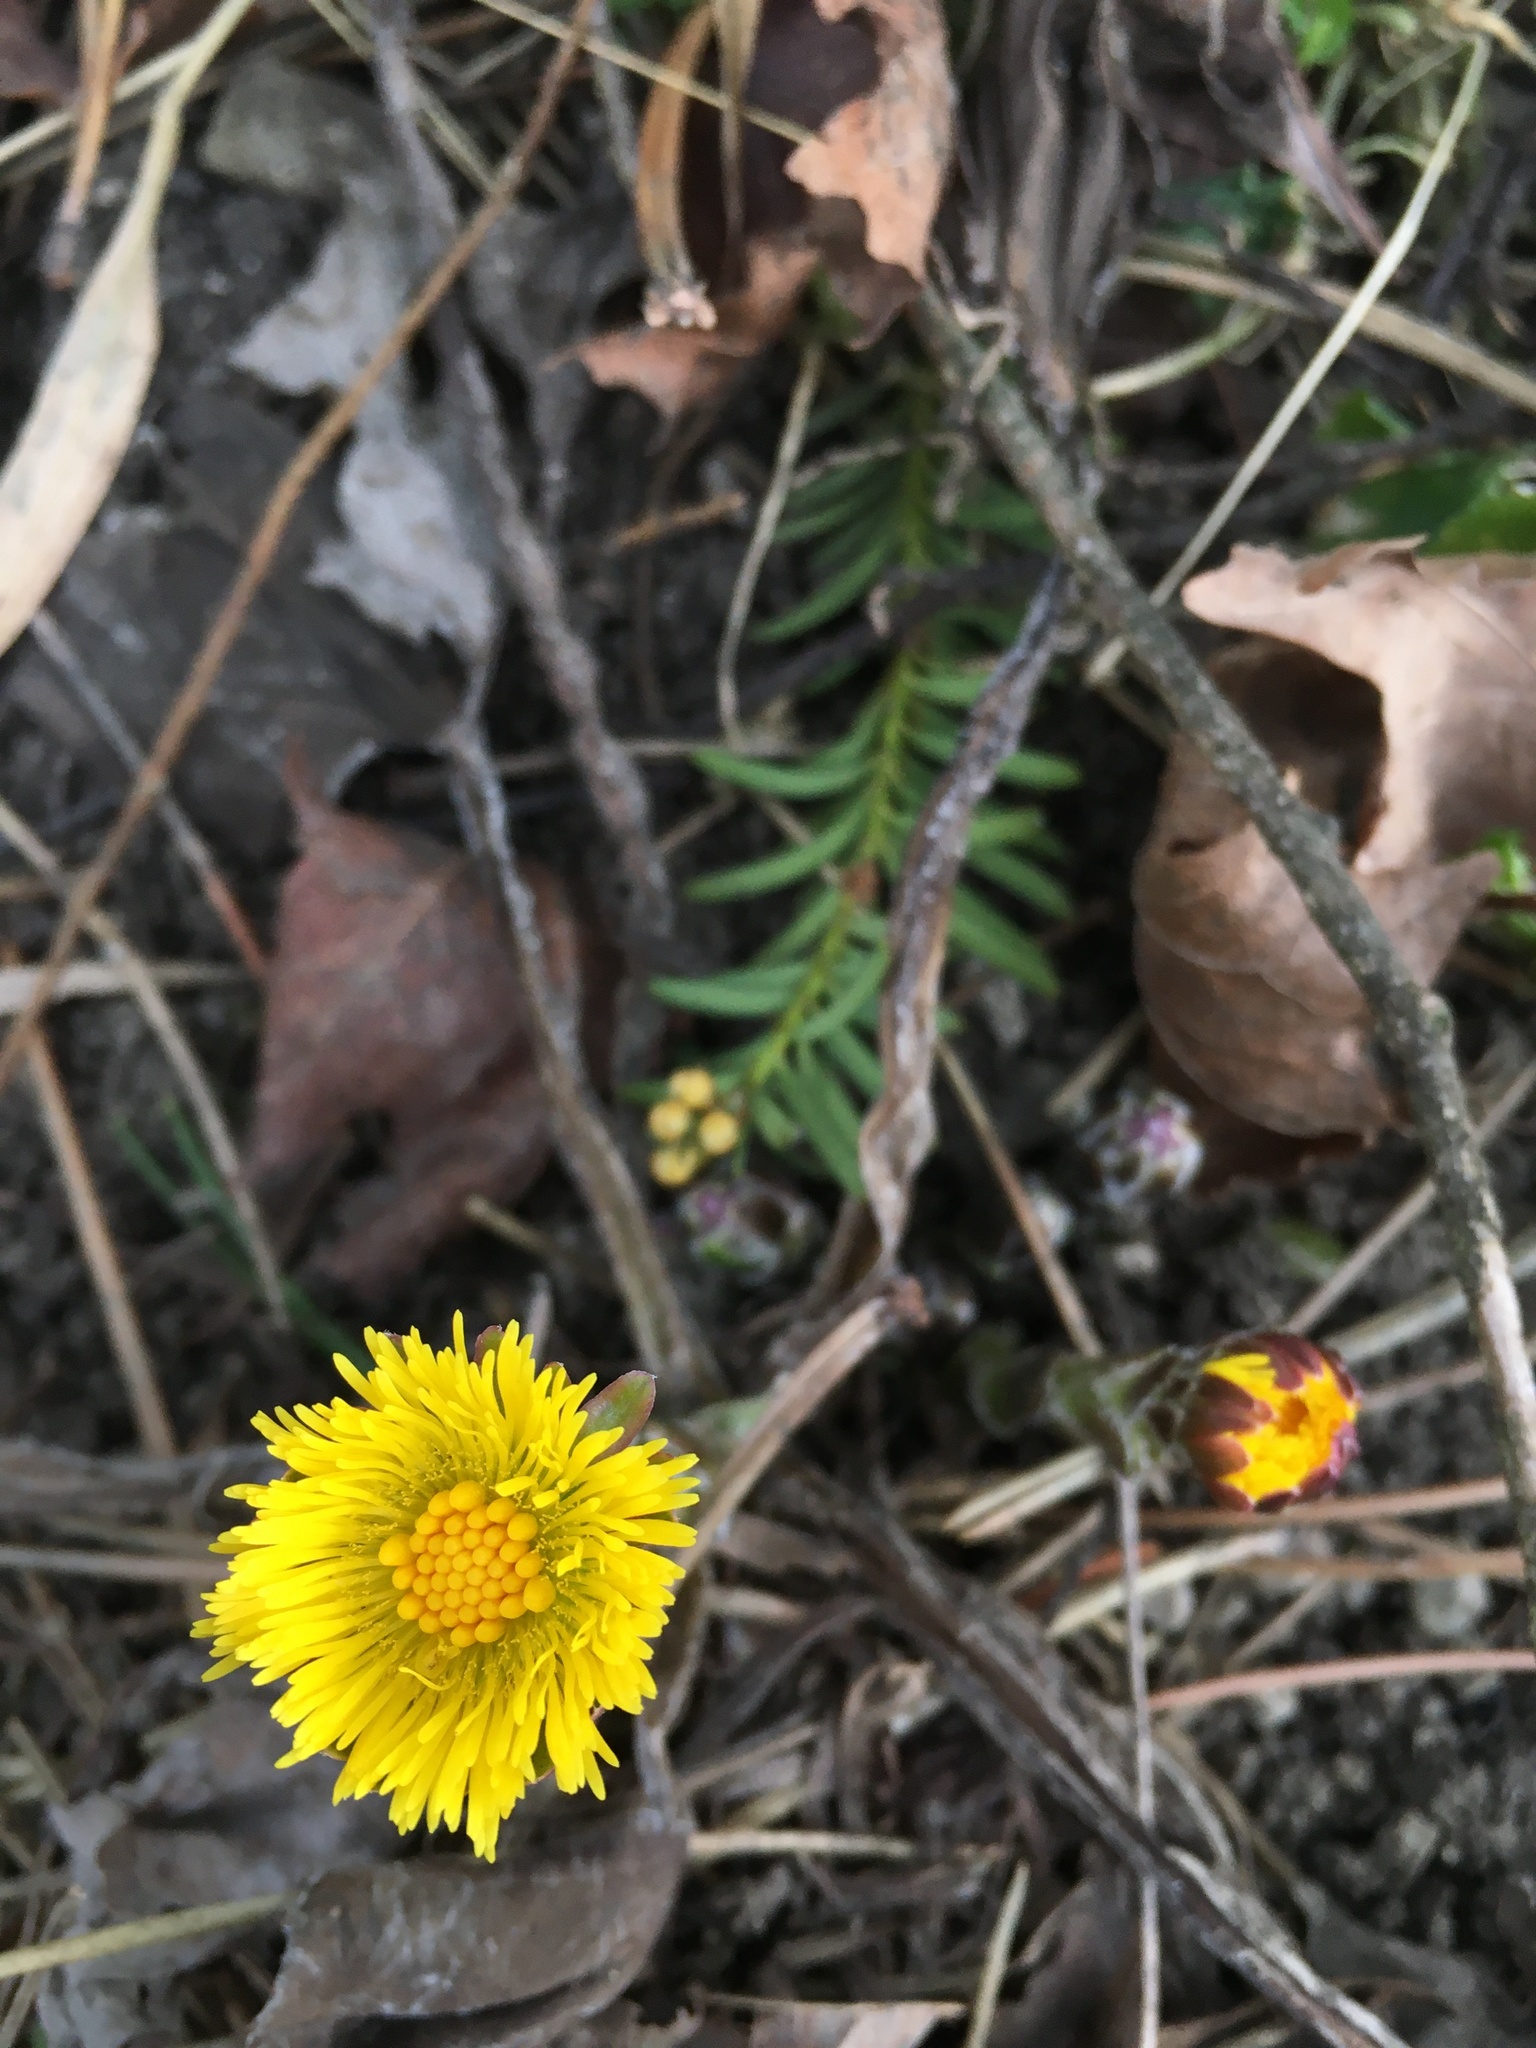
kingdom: Plantae
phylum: Tracheophyta
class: Magnoliopsida
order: Asterales
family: Asteraceae
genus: Tussilago
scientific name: Tussilago farfara
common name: Coltsfoot
